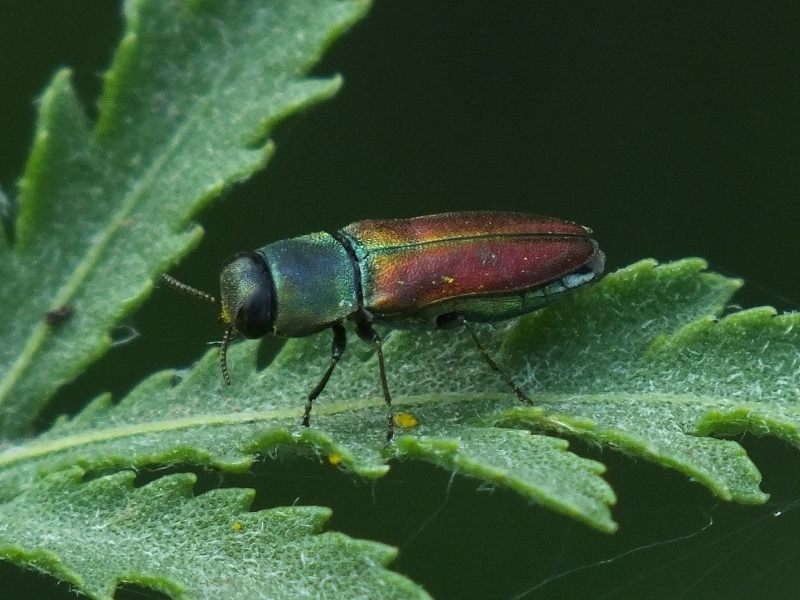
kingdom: Animalia
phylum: Arthropoda
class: Insecta
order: Coleoptera
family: Buprestidae
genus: Anthaxia
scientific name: Anthaxia cichorii
